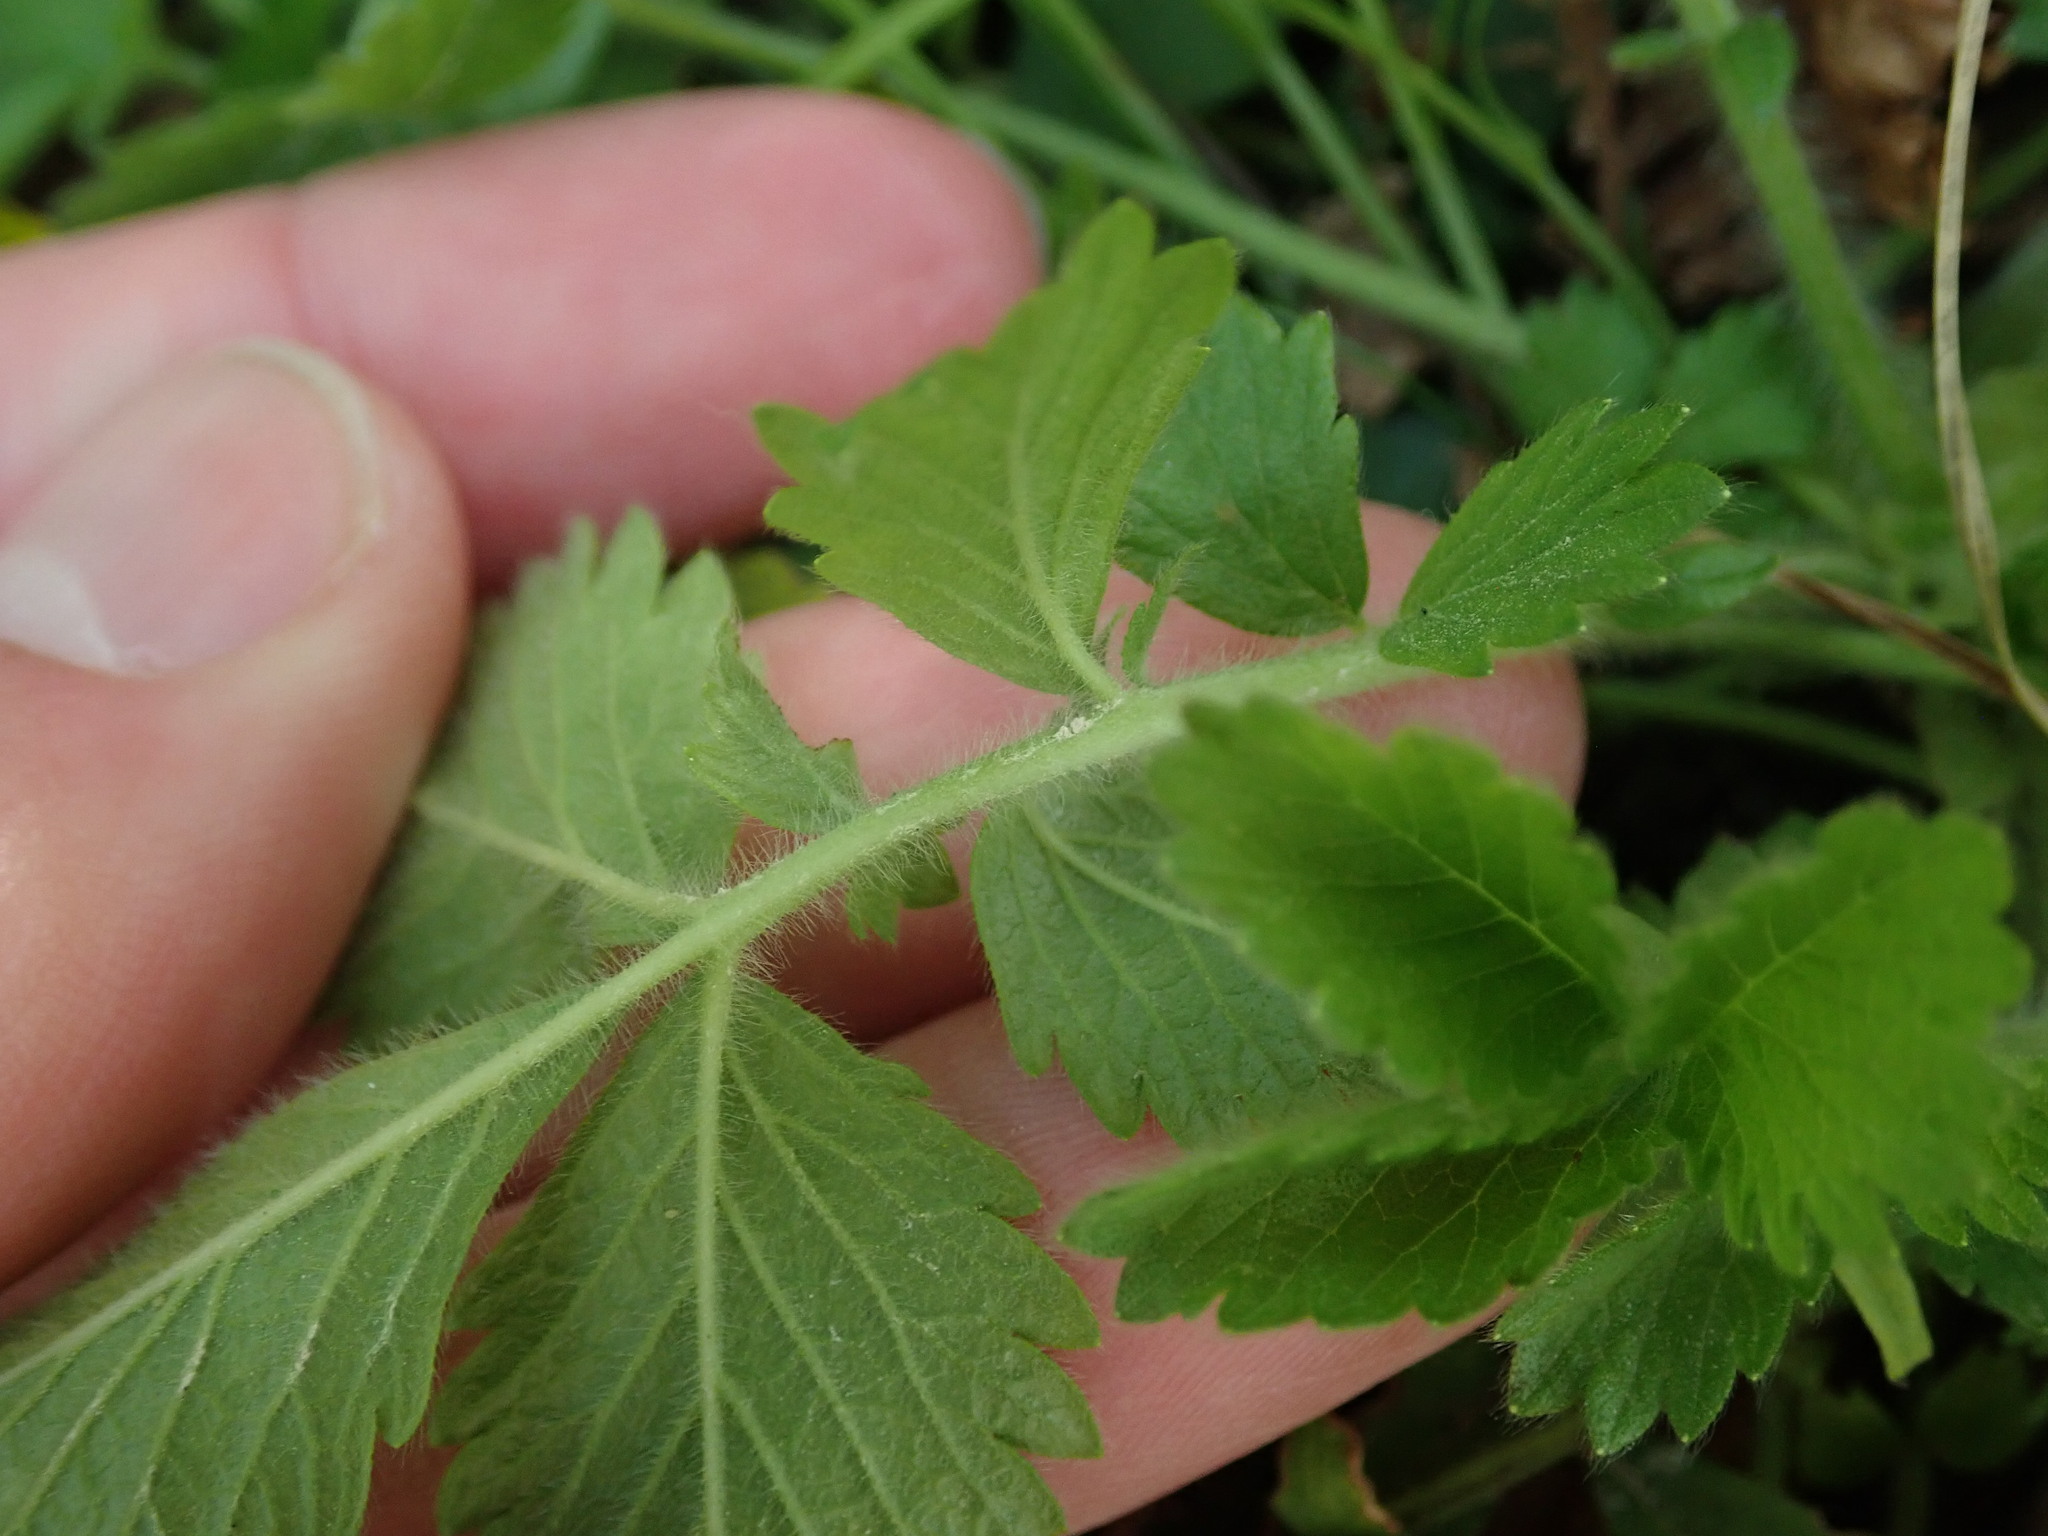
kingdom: Plantae
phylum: Tracheophyta
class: Magnoliopsida
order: Rosales
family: Rosaceae
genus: Aremonia
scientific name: Aremonia agrimonoides
